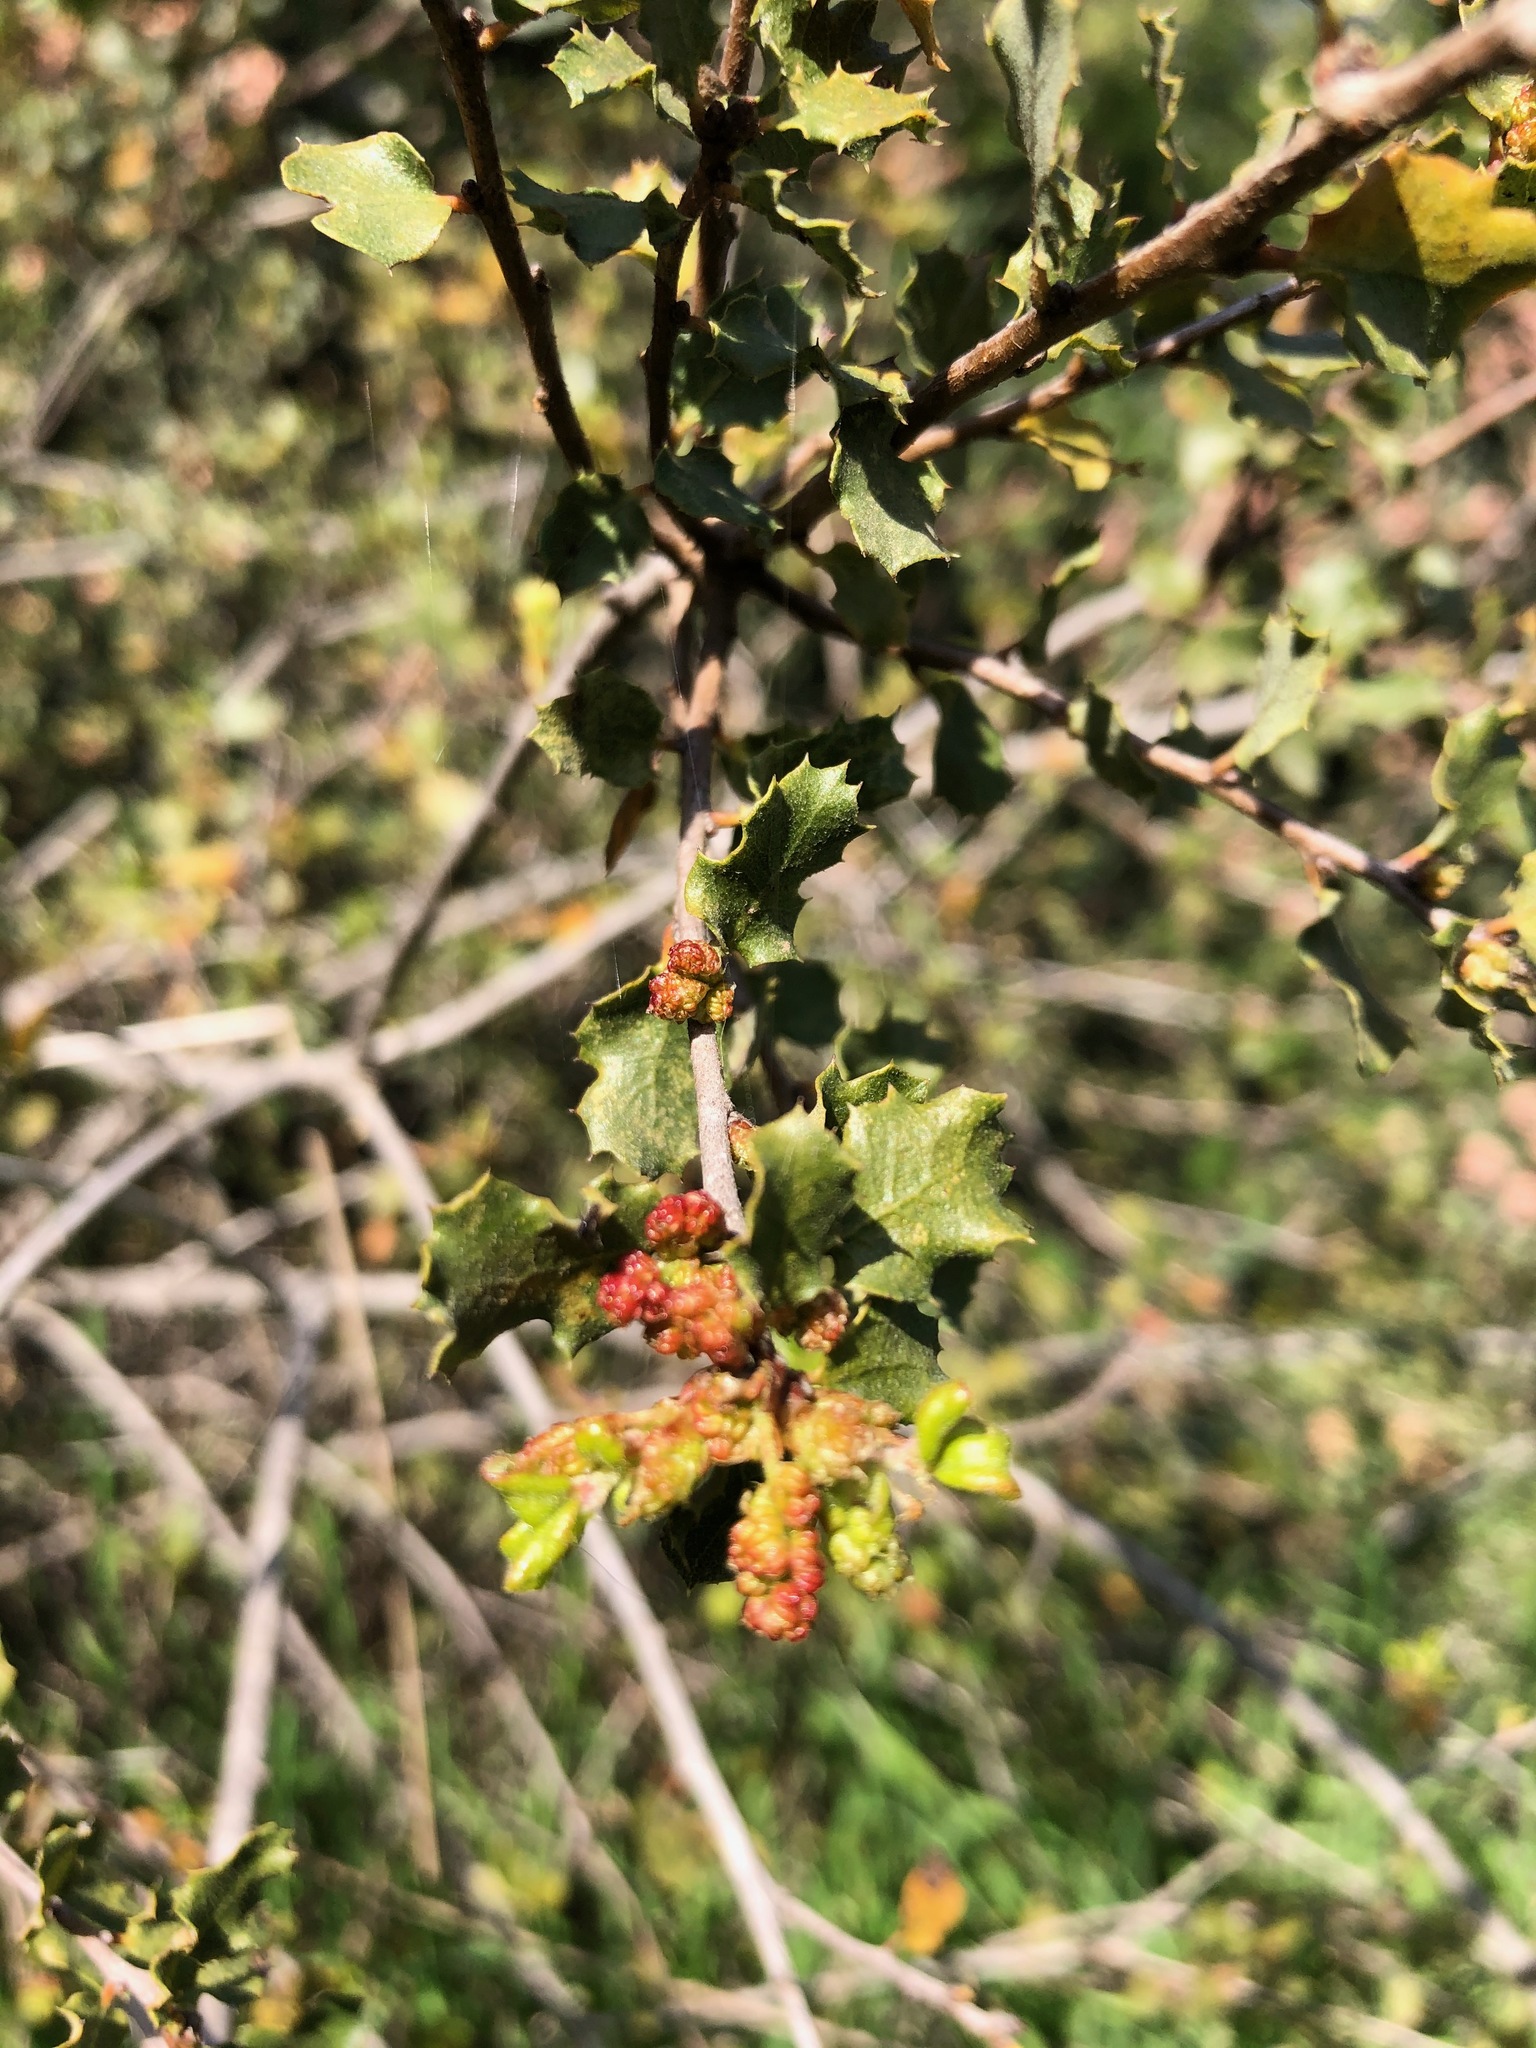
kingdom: Plantae
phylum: Tracheophyta
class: Magnoliopsida
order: Fagales
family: Fagaceae
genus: Quercus
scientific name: Quercus dumosa
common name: Coastal sage scrub oak
